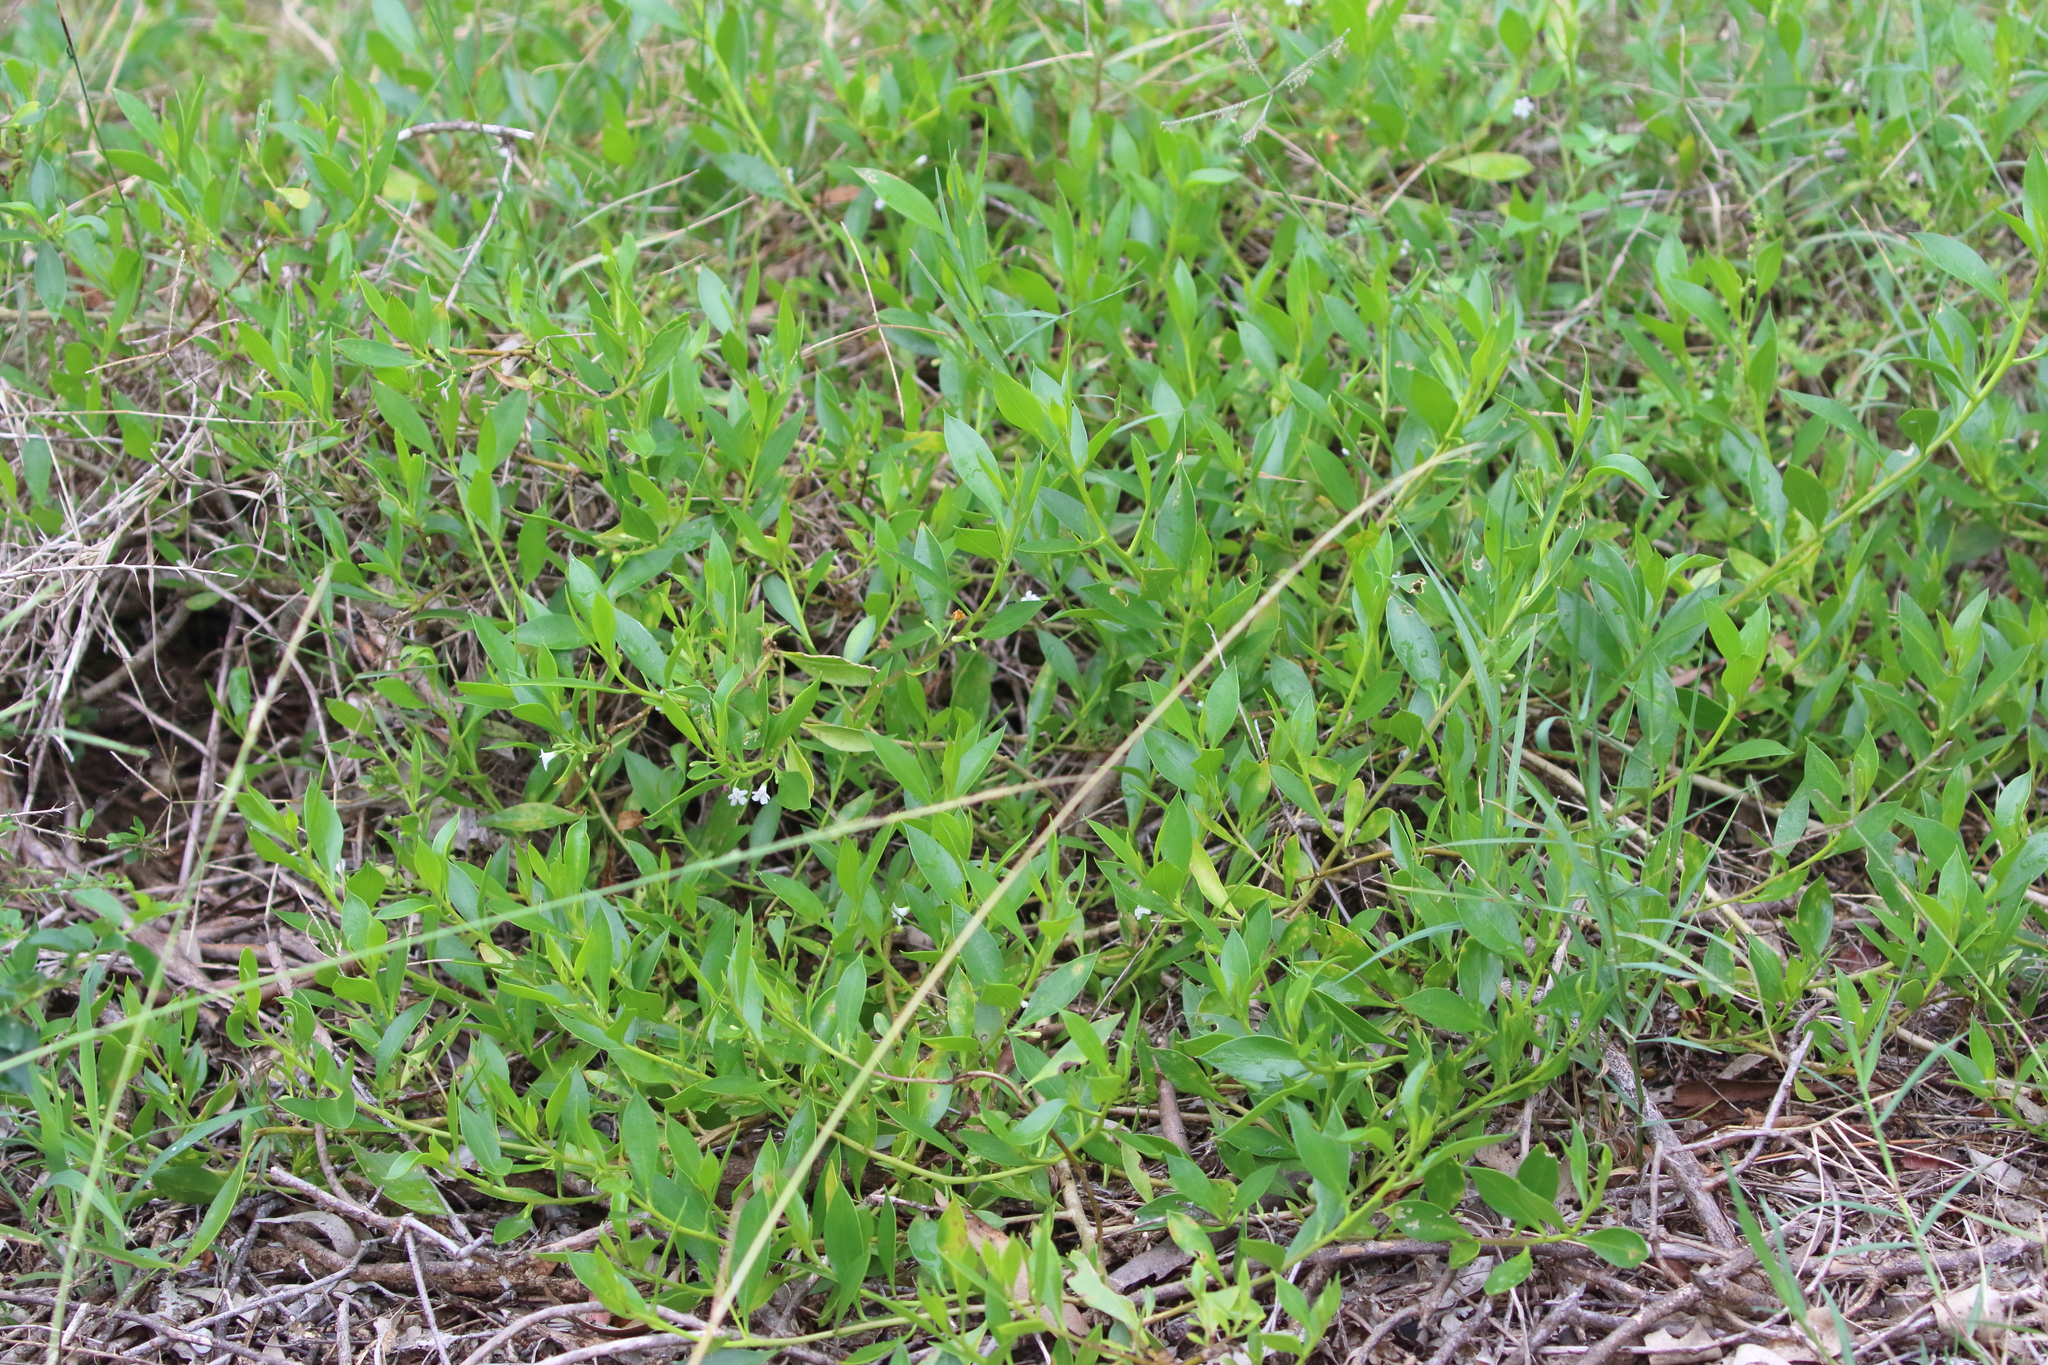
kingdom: Plantae
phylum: Tracheophyta
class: Magnoliopsida
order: Lamiales
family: Scrophulariaceae
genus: Myoporum
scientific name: Myoporum boninense
